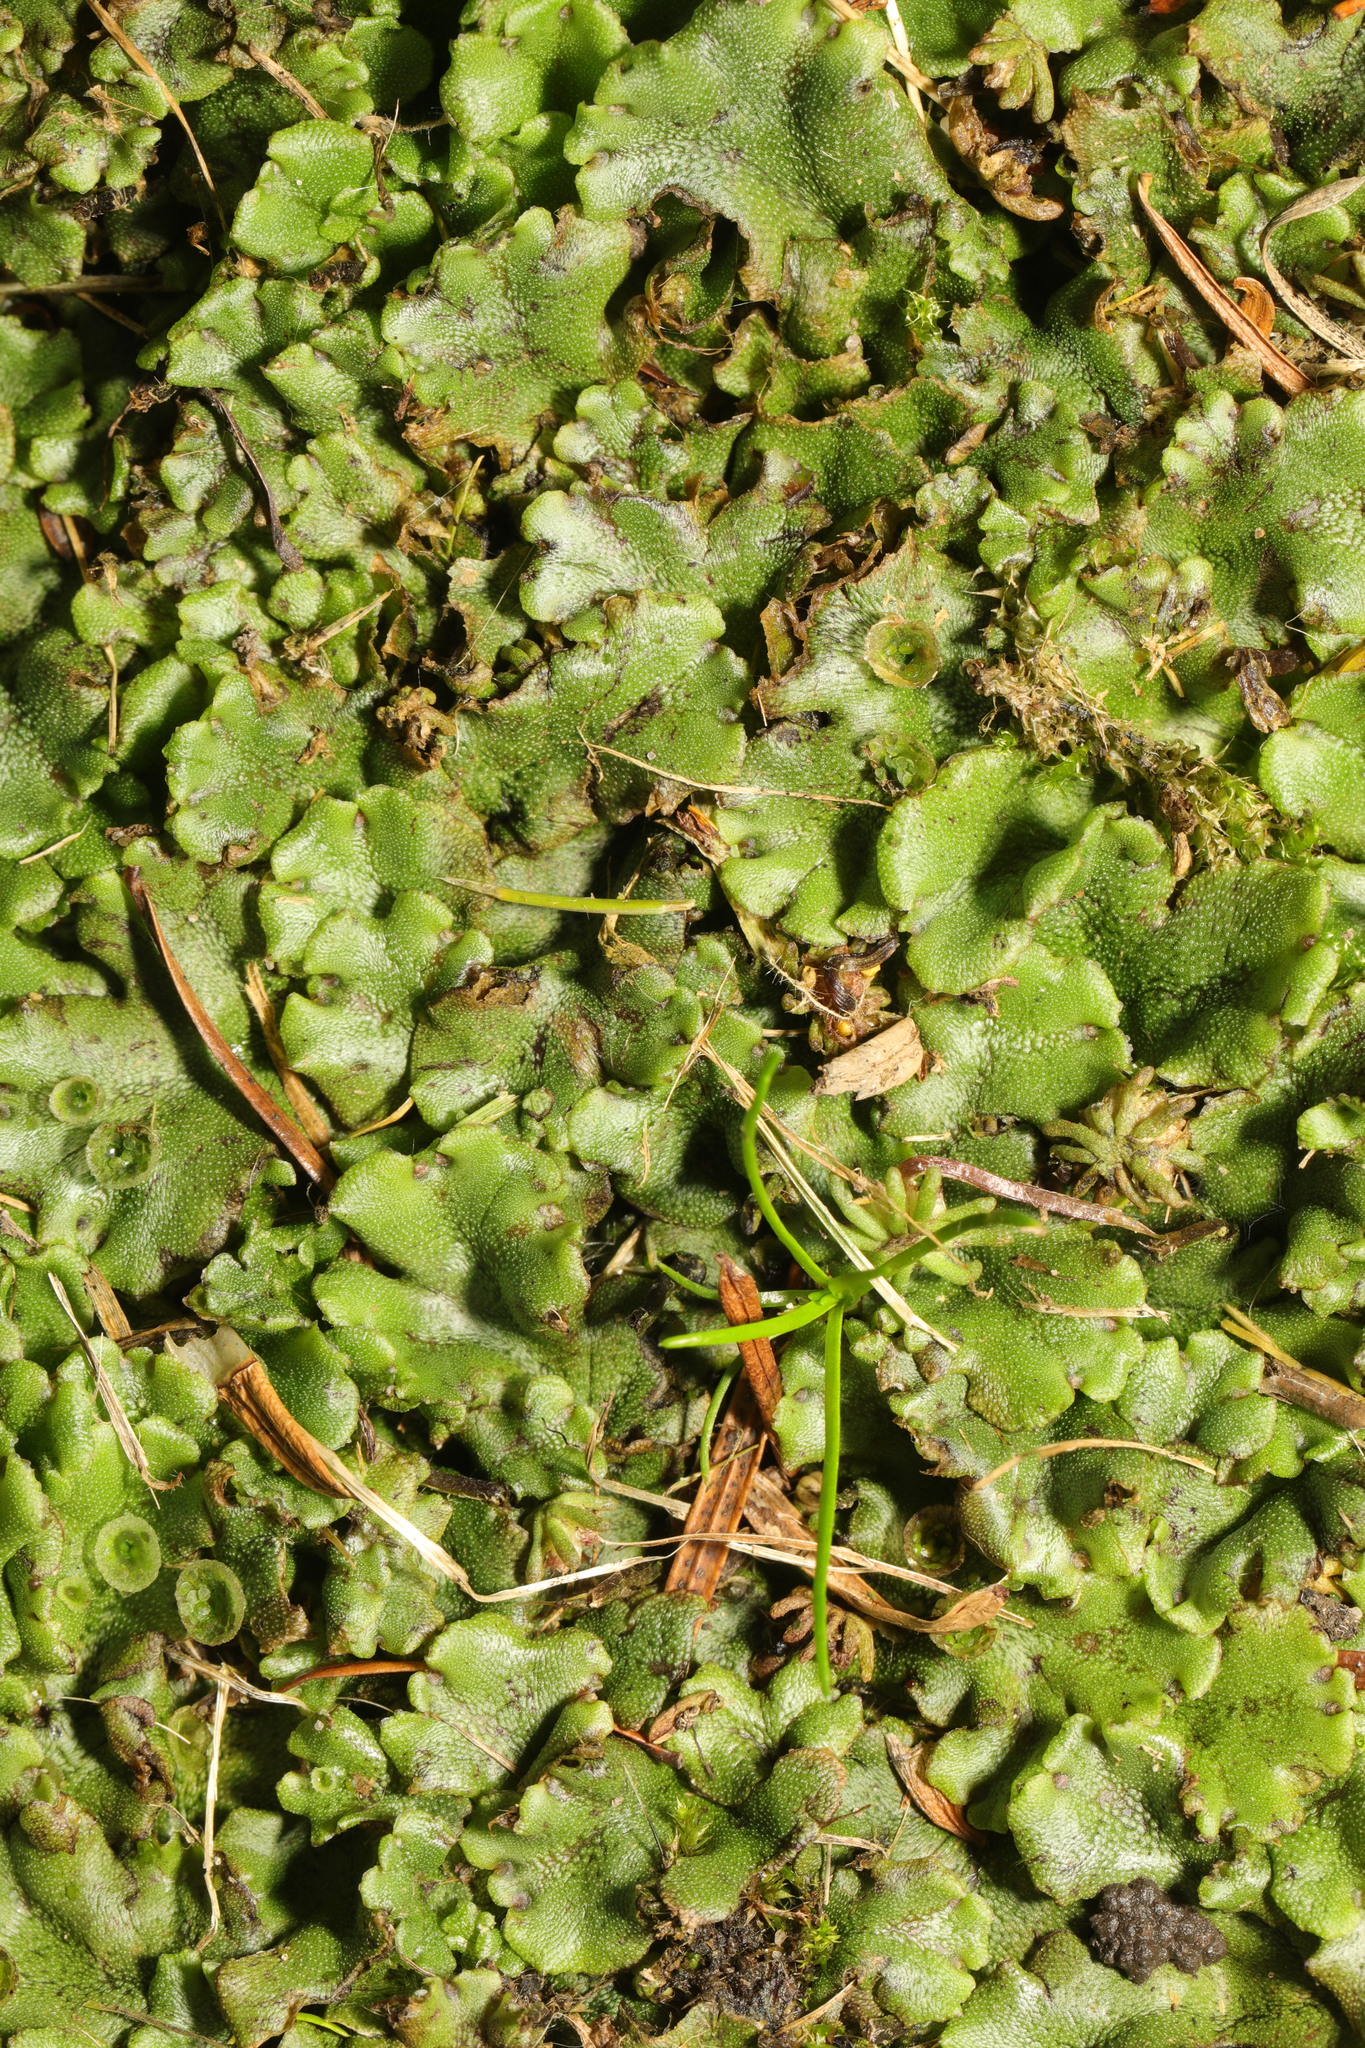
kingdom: Plantae
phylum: Marchantiophyta
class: Marchantiopsida
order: Marchantiales
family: Marchantiaceae
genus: Marchantia
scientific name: Marchantia polymorpha
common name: Common liverwort
